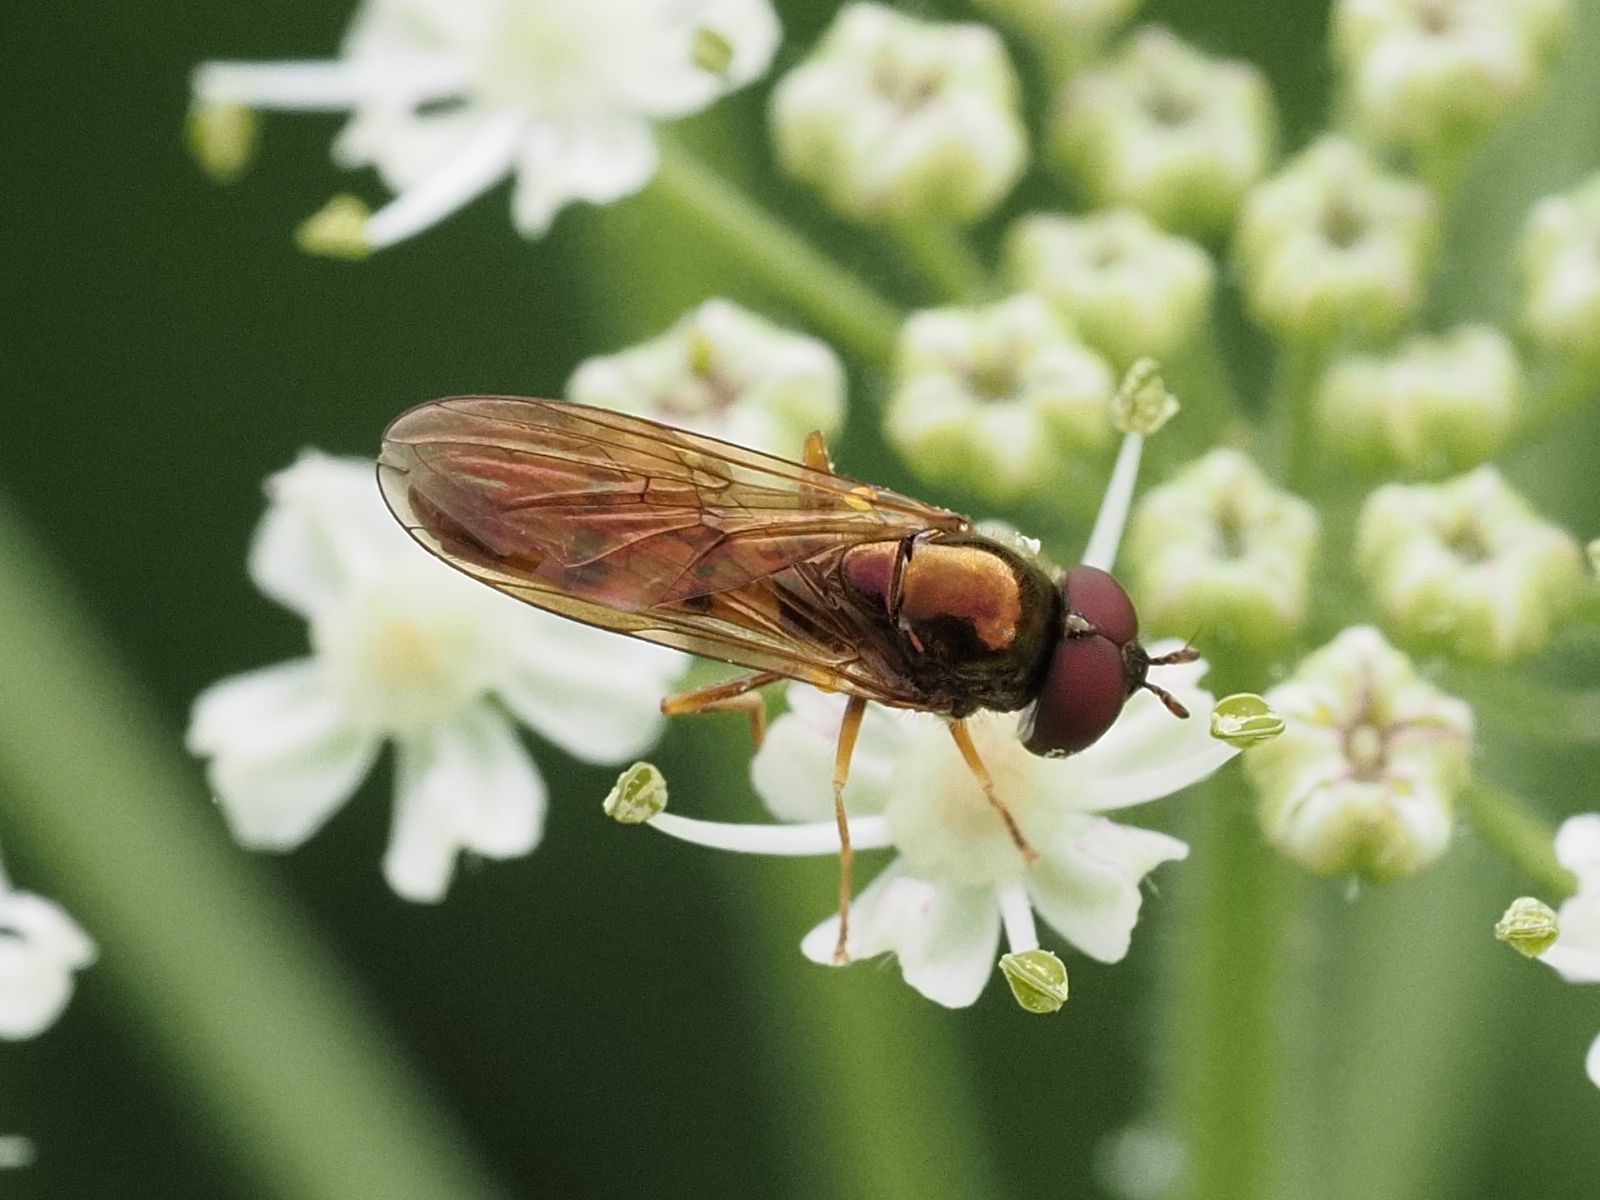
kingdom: Animalia
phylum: Arthropoda
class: Insecta
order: Diptera
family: Syrphidae
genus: Melanostoma
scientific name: Melanostoma mellina
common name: Hover fly
